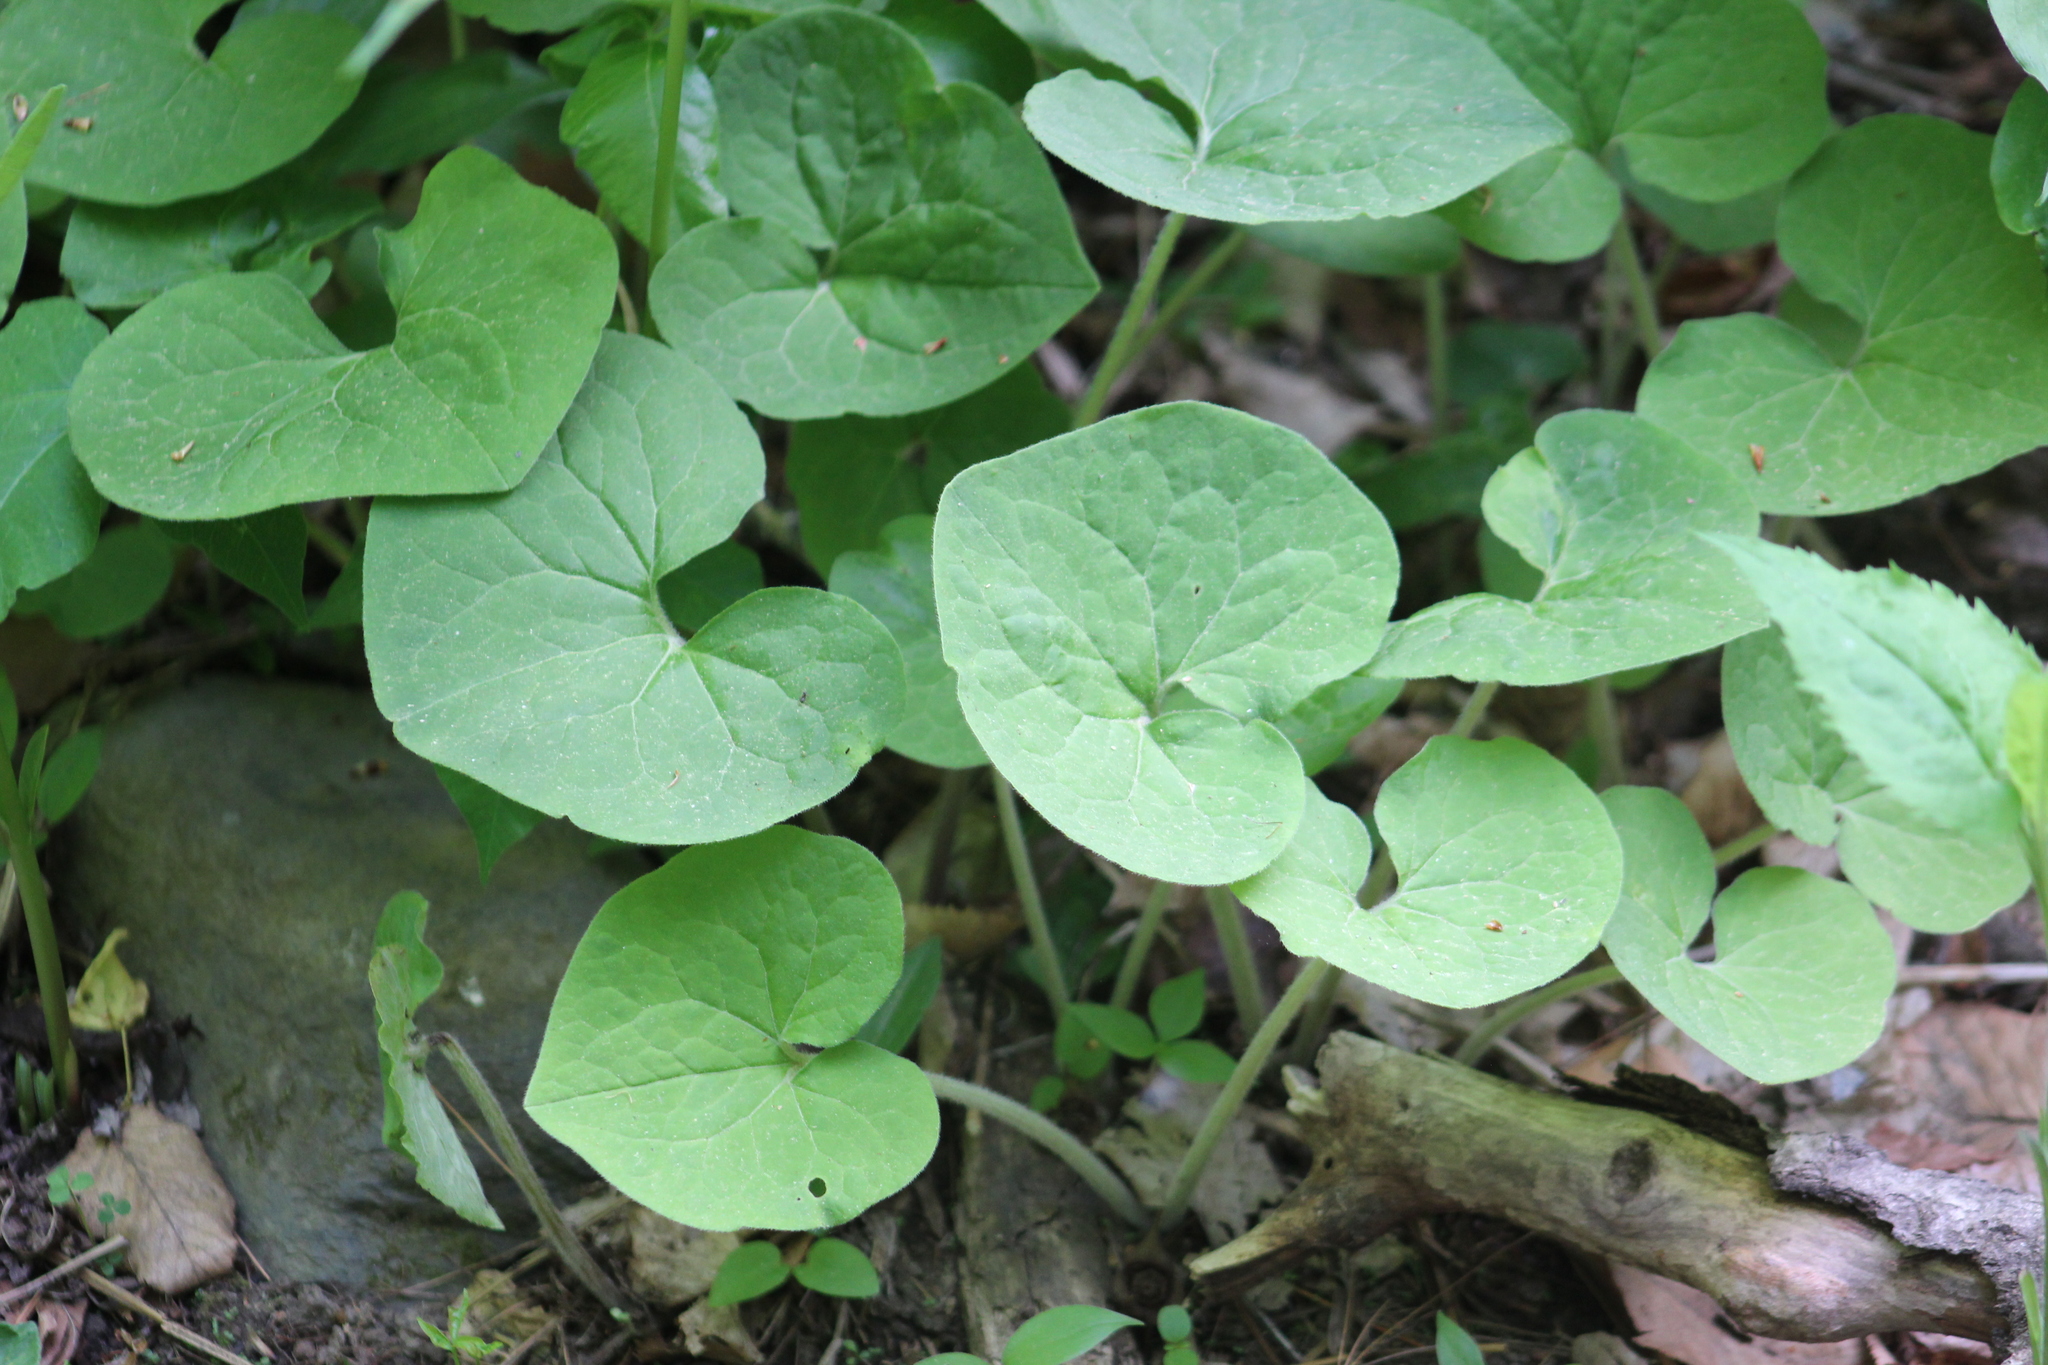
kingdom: Plantae
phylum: Tracheophyta
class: Magnoliopsida
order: Piperales
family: Aristolochiaceae
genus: Asarum
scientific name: Asarum canadense
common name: Wild ginger
